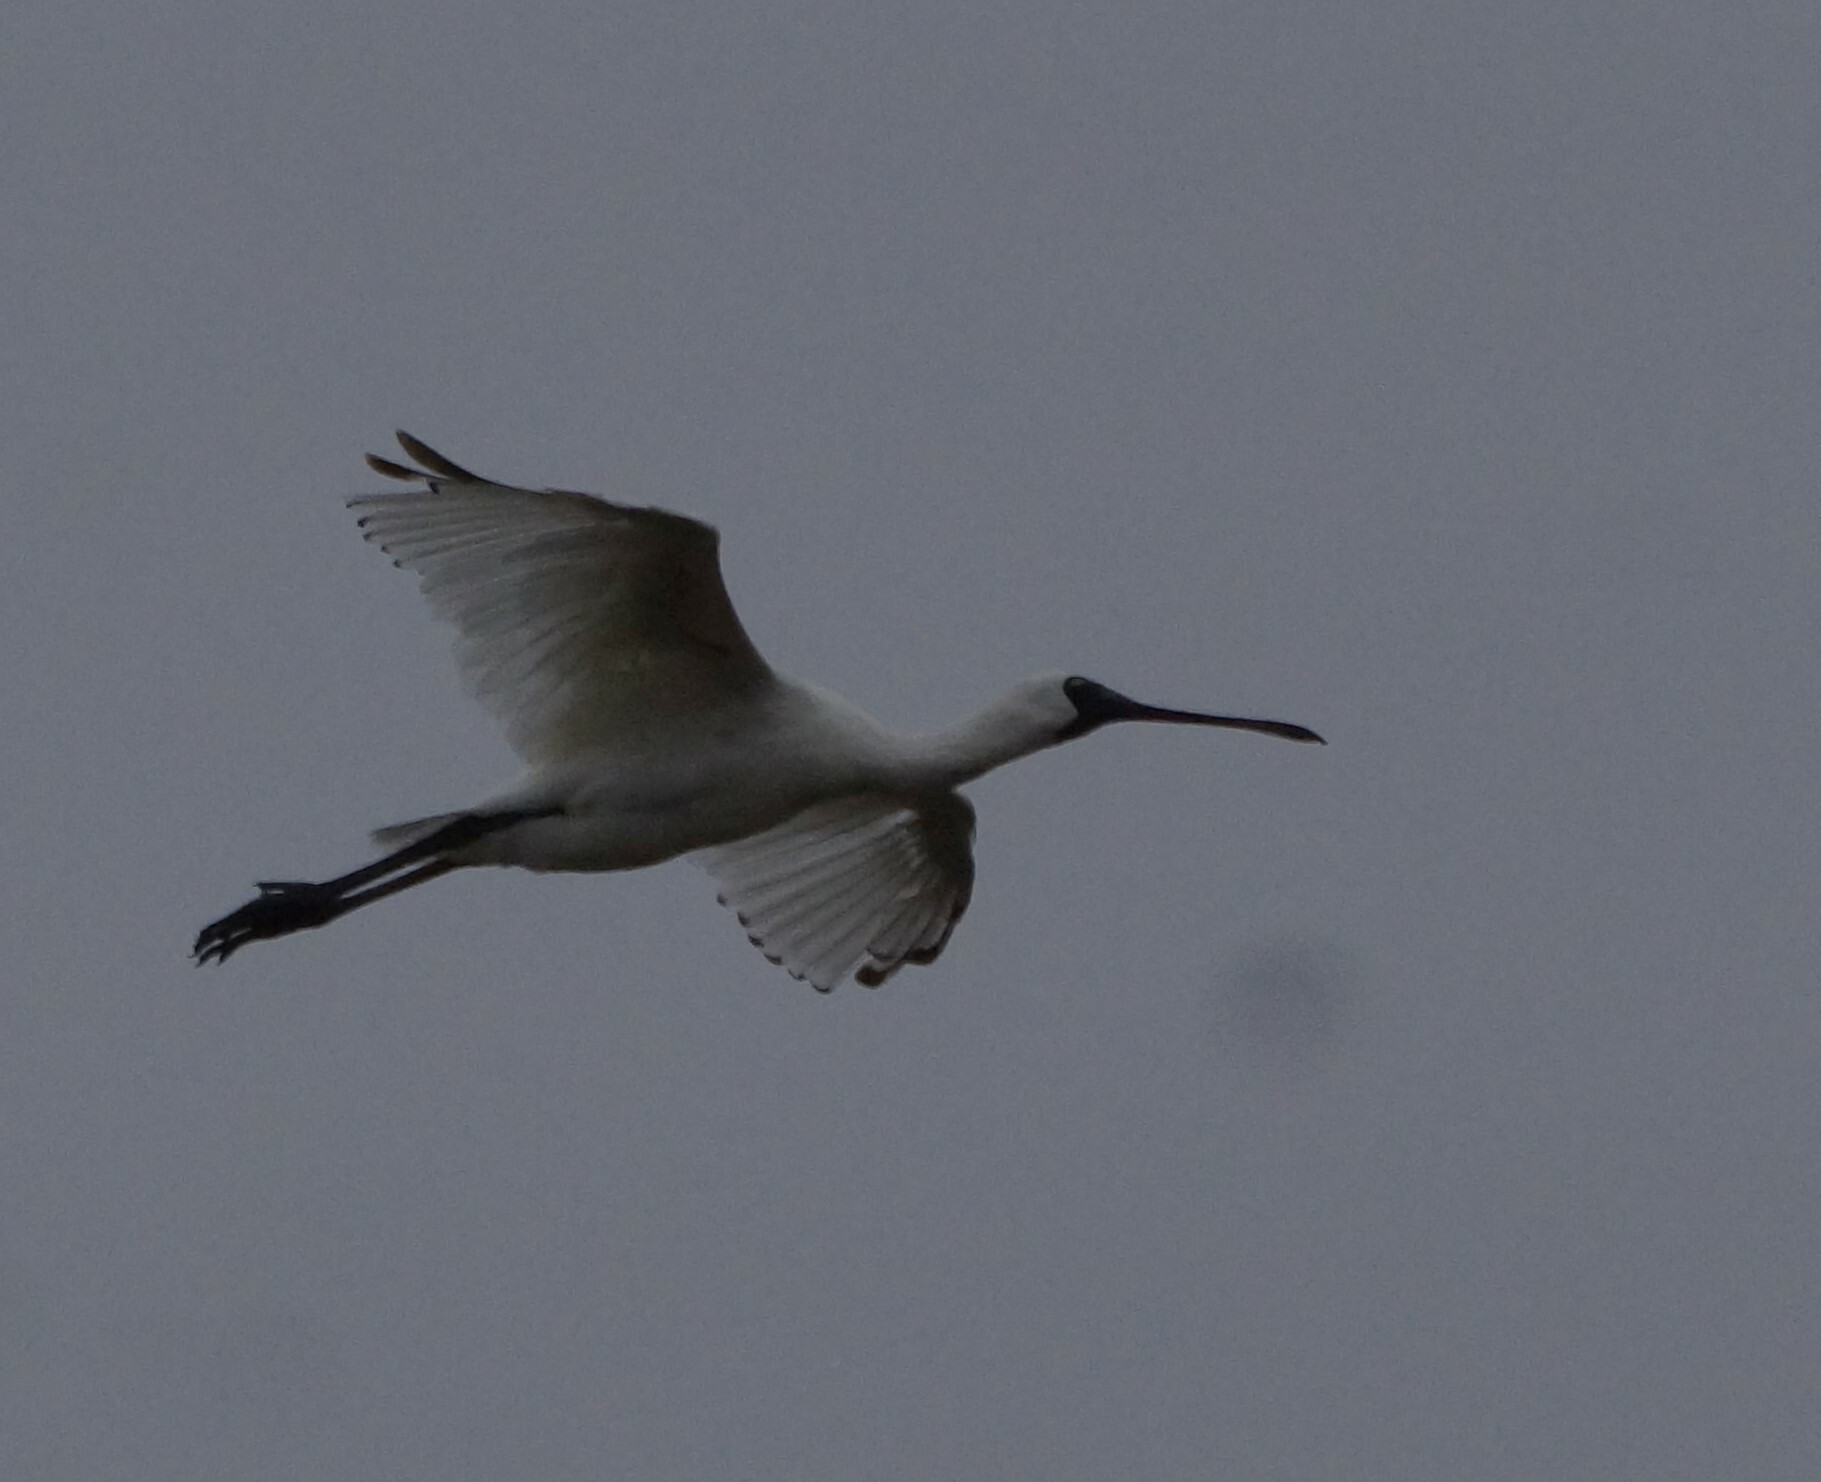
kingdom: Animalia
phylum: Chordata
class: Aves
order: Pelecaniformes
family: Threskiornithidae
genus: Platalea
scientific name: Platalea regia
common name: Royal spoonbill
